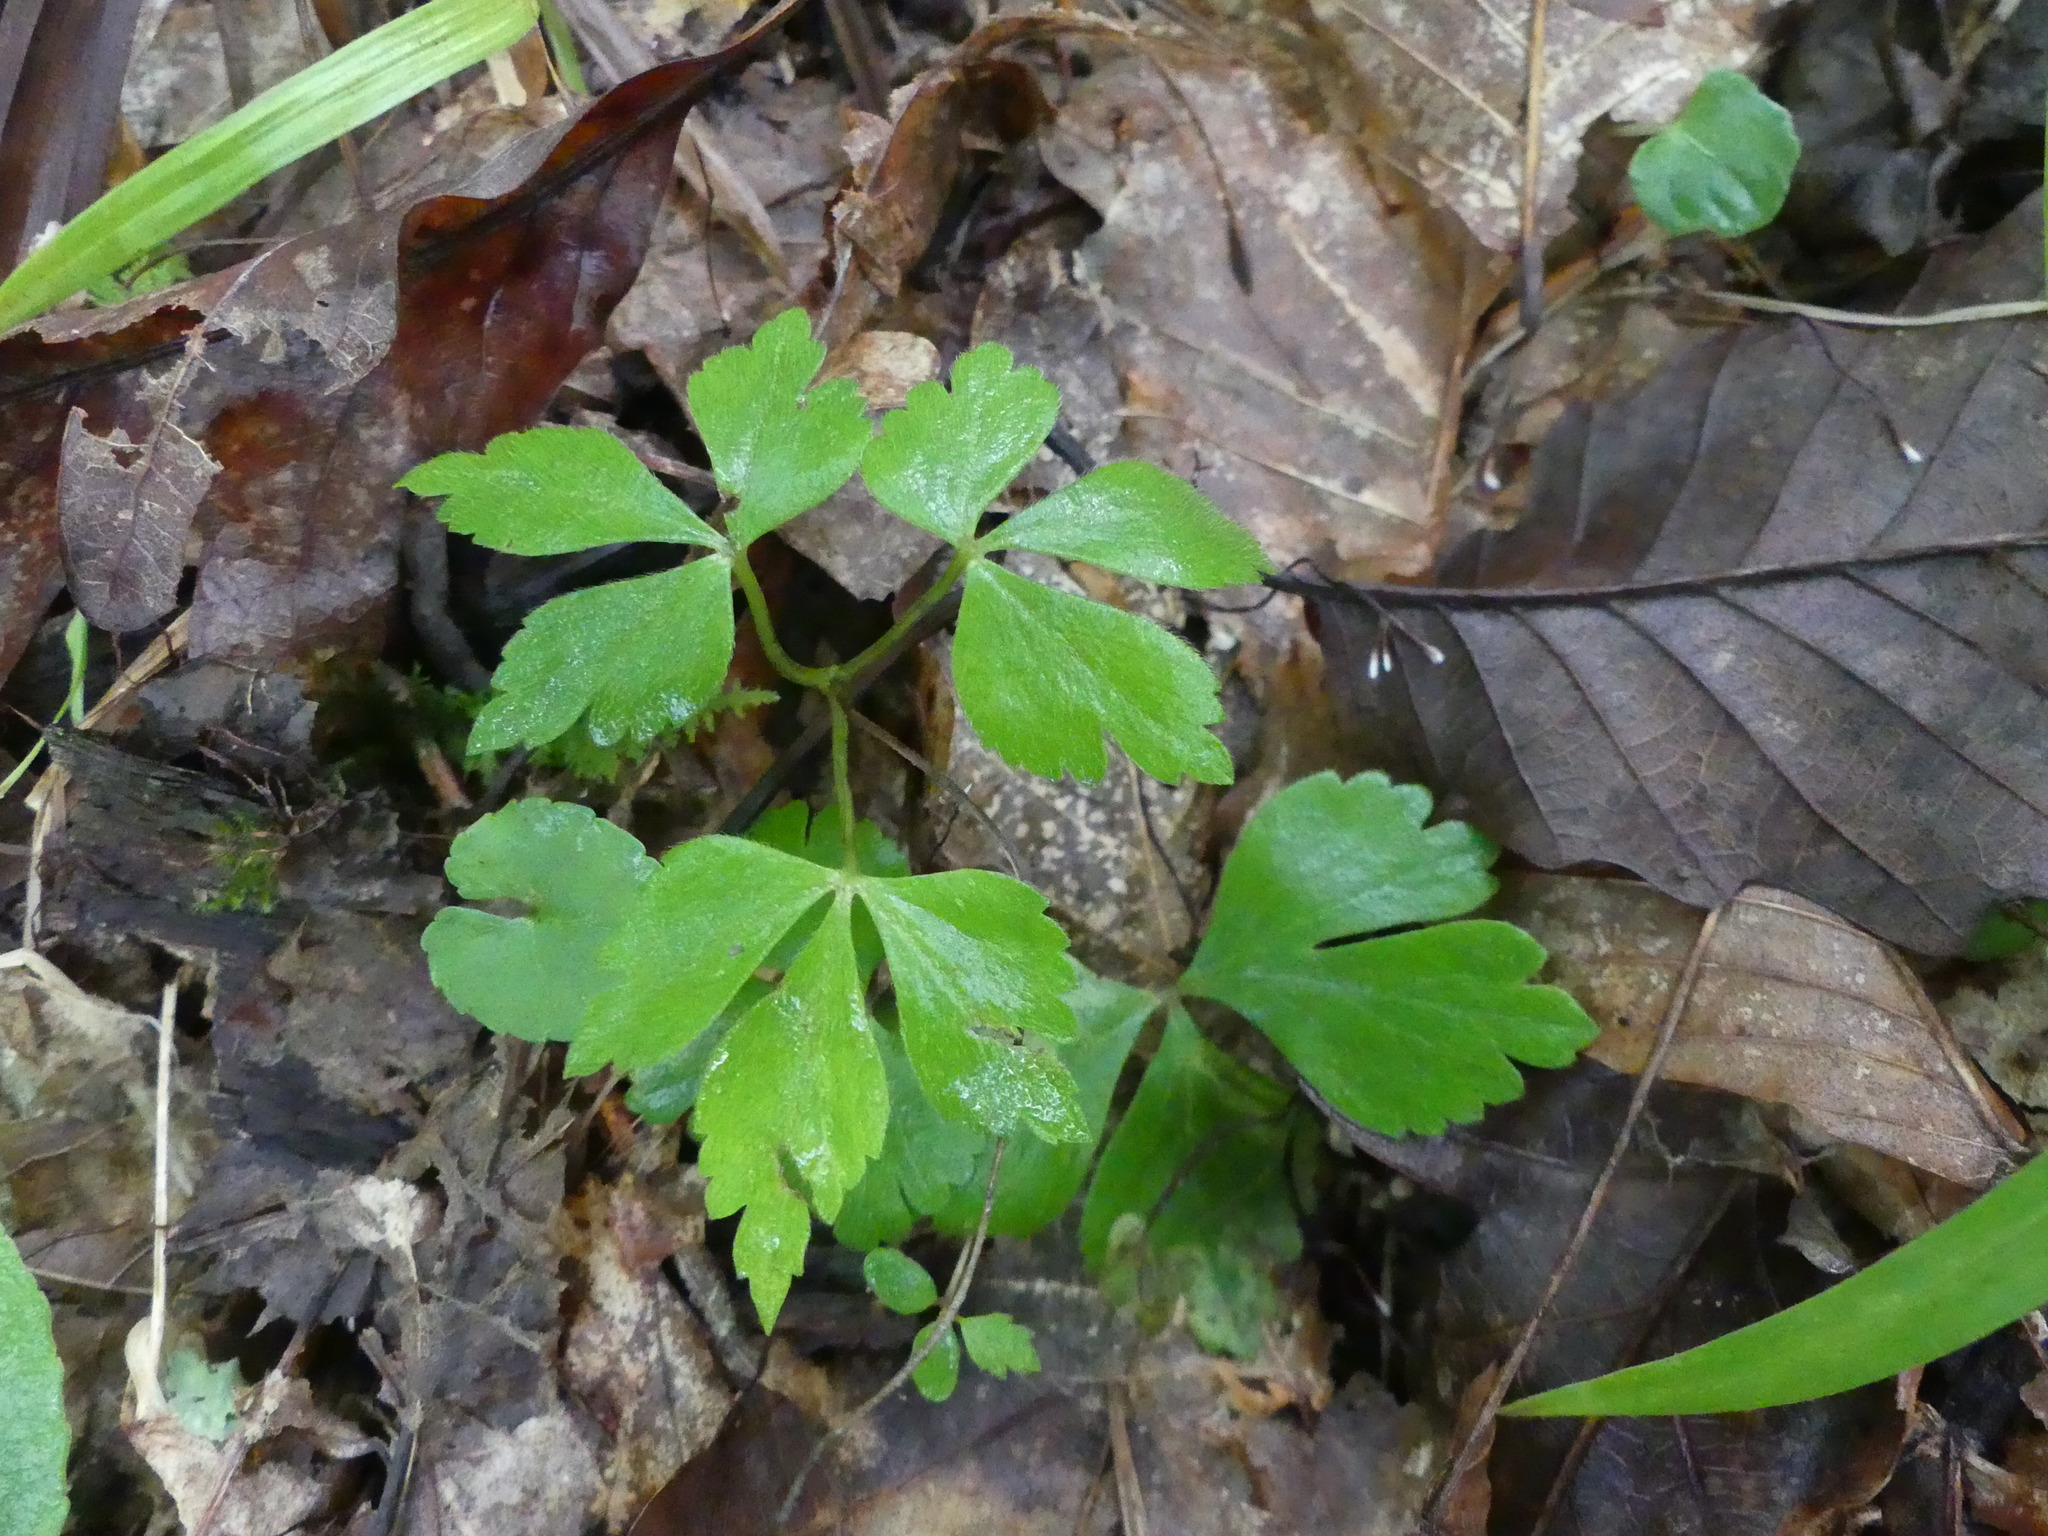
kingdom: Plantae
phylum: Tracheophyta
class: Magnoliopsida
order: Ranunculales
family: Ranunculaceae
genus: Anemone
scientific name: Anemone quinquefolia
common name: Wood anemone
